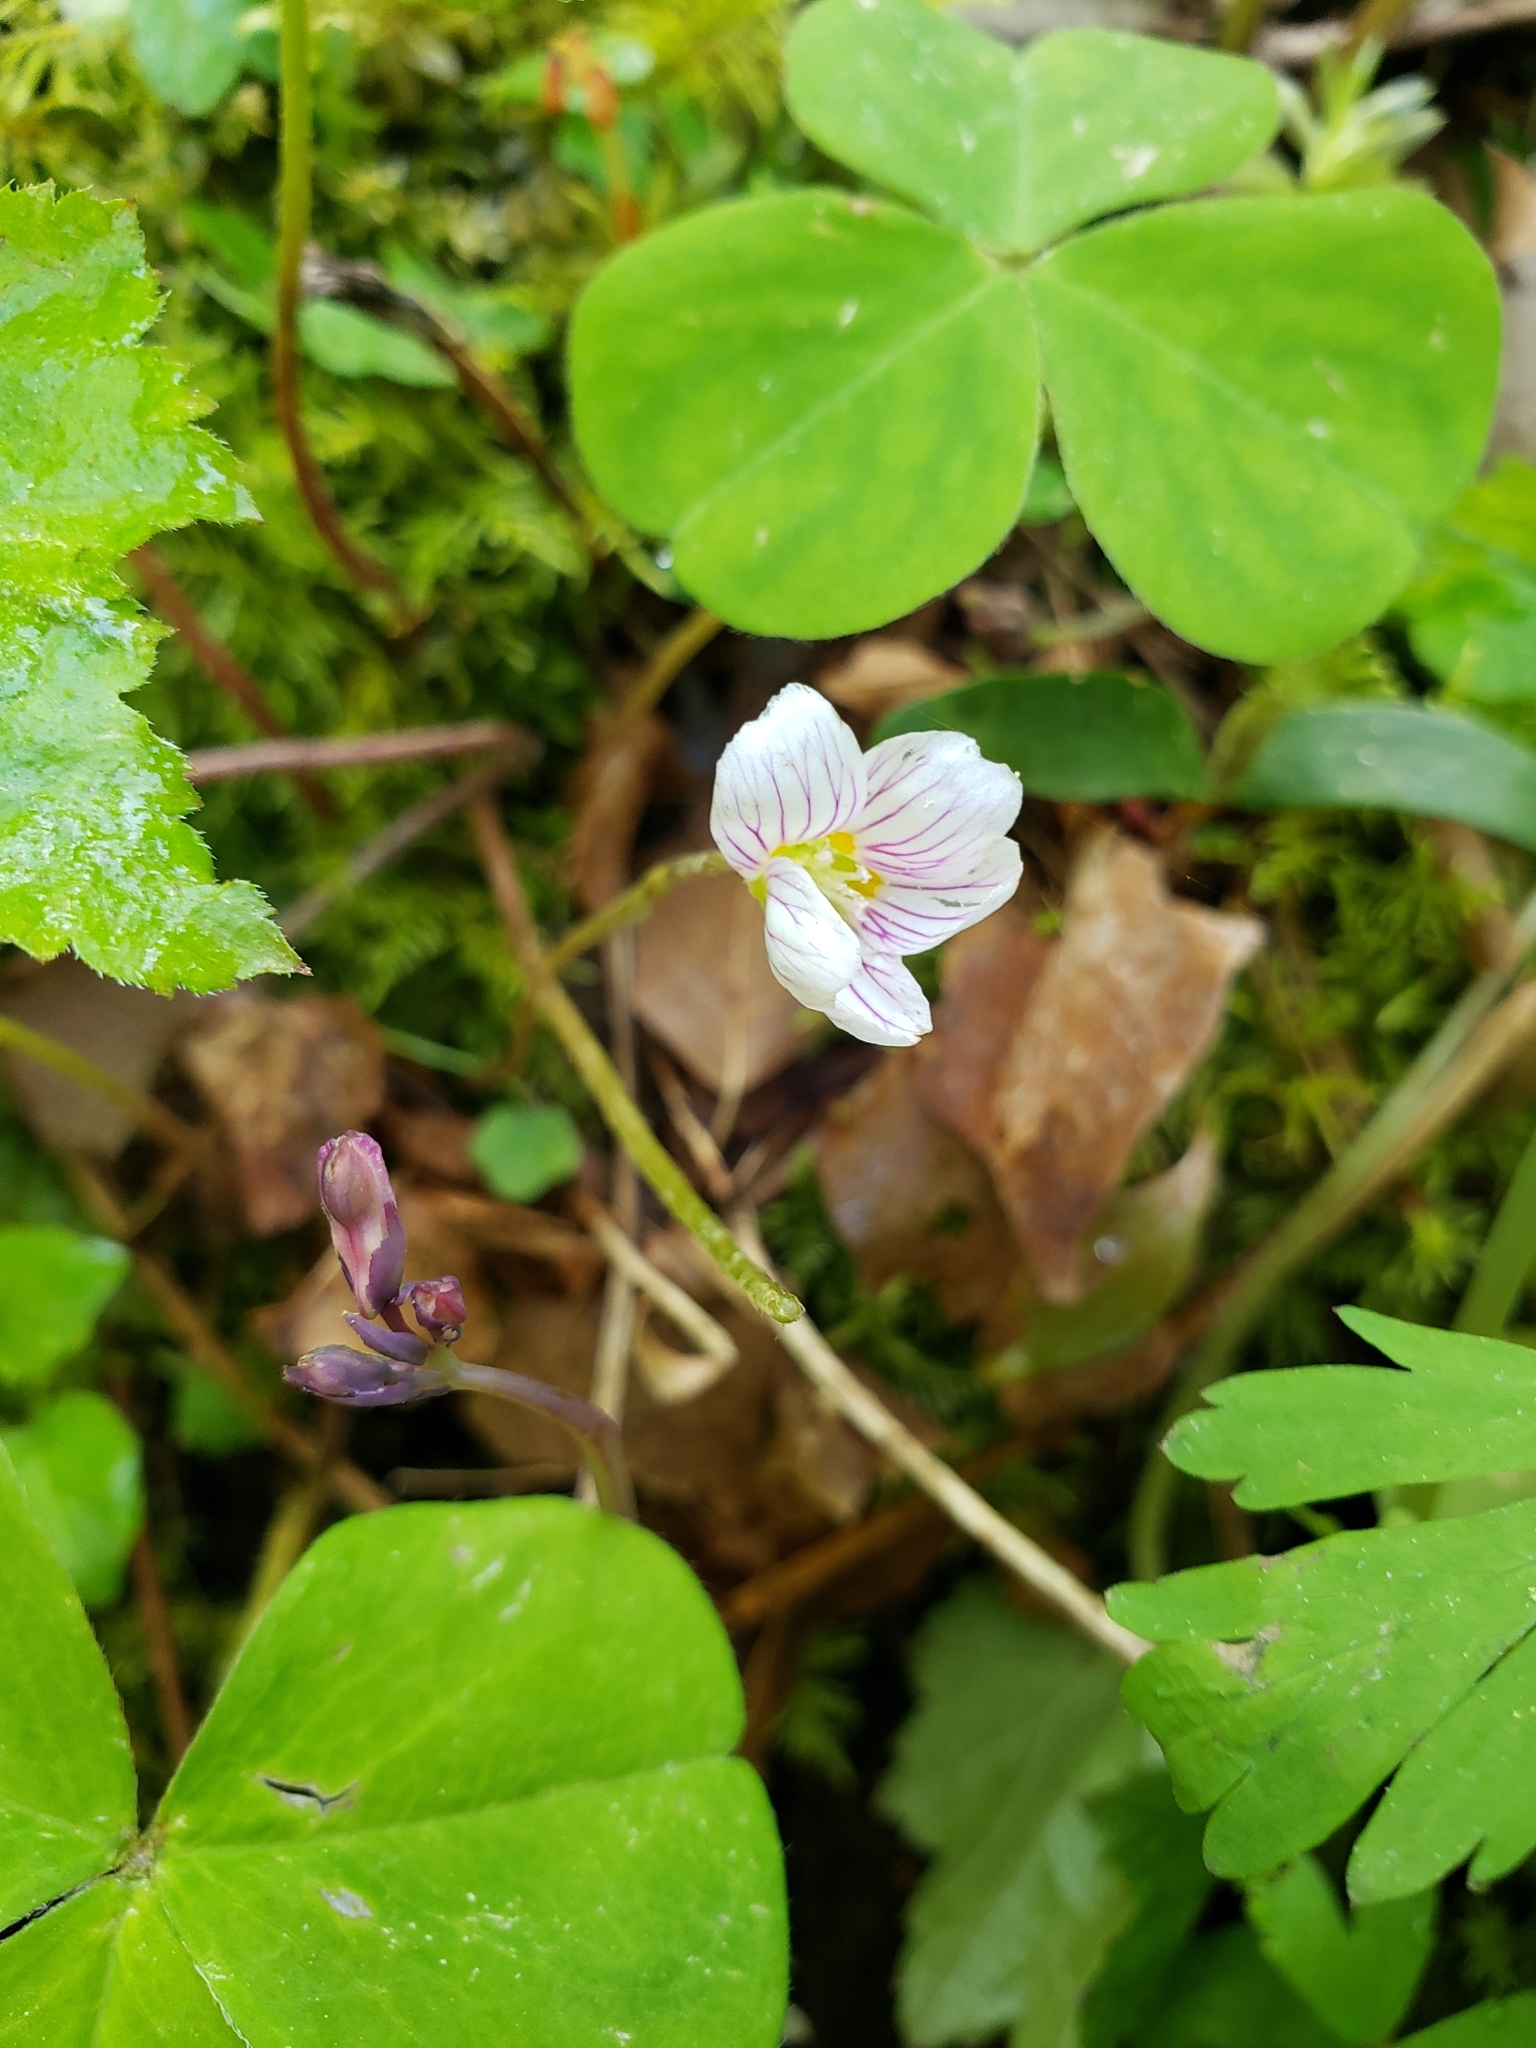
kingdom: Plantae
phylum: Tracheophyta
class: Magnoliopsida
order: Oxalidales
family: Oxalidaceae
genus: Oxalis
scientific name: Oxalis oregana
